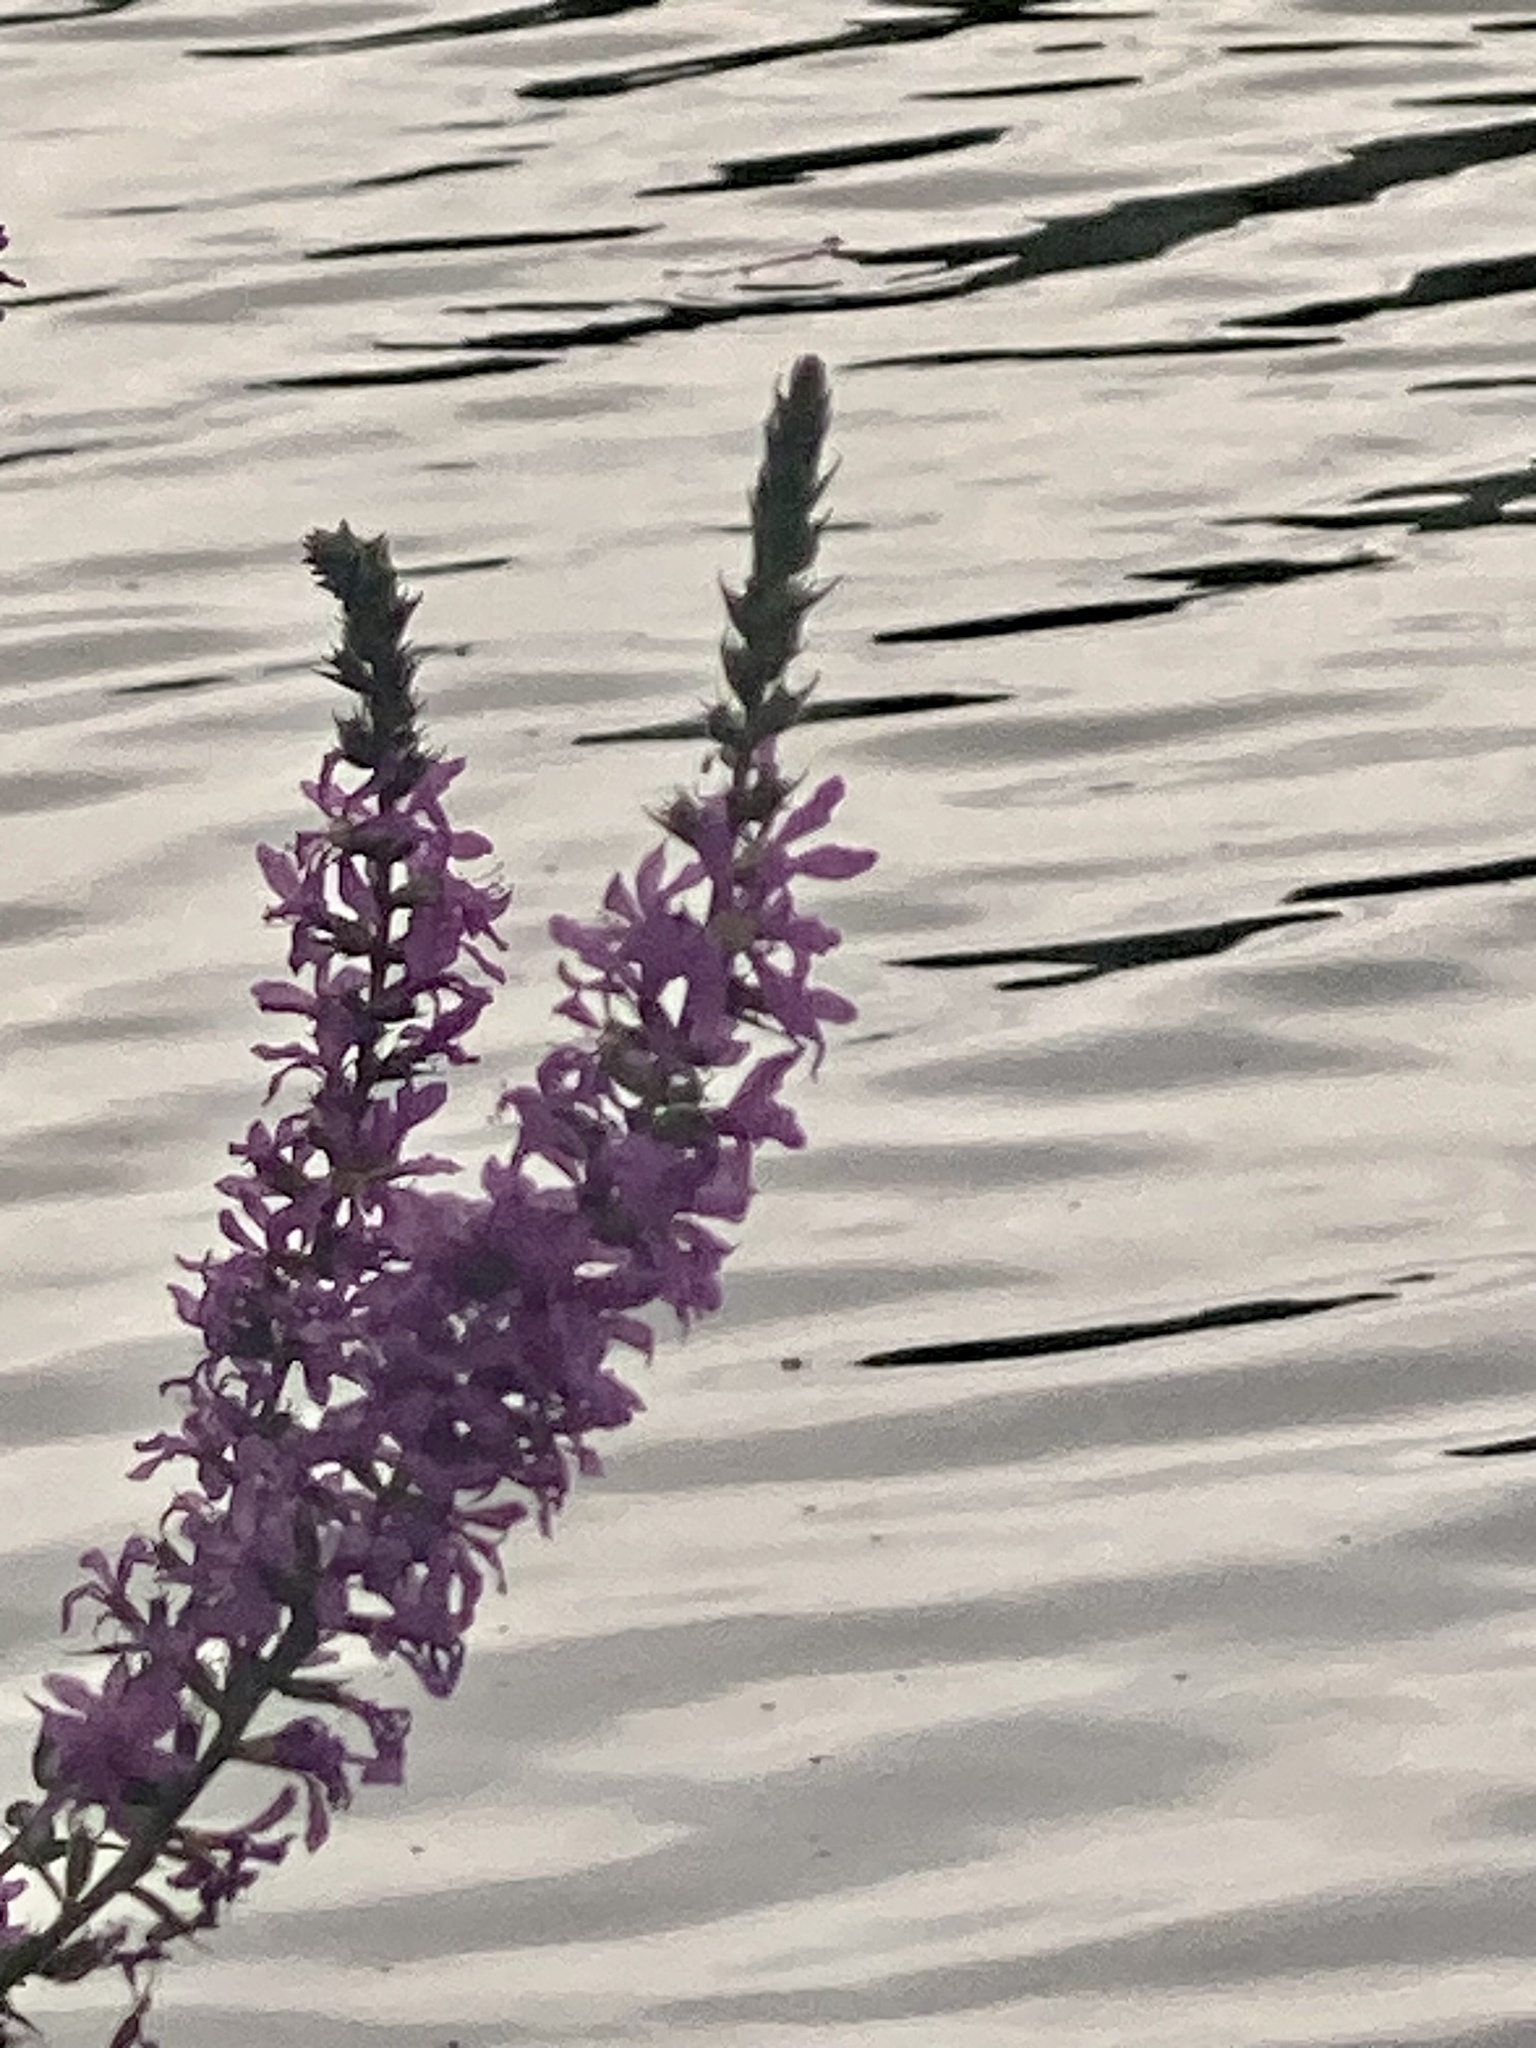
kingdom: Plantae
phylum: Tracheophyta
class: Magnoliopsida
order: Myrtales
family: Lythraceae
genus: Lythrum
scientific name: Lythrum salicaria
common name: Purple loosestrife
